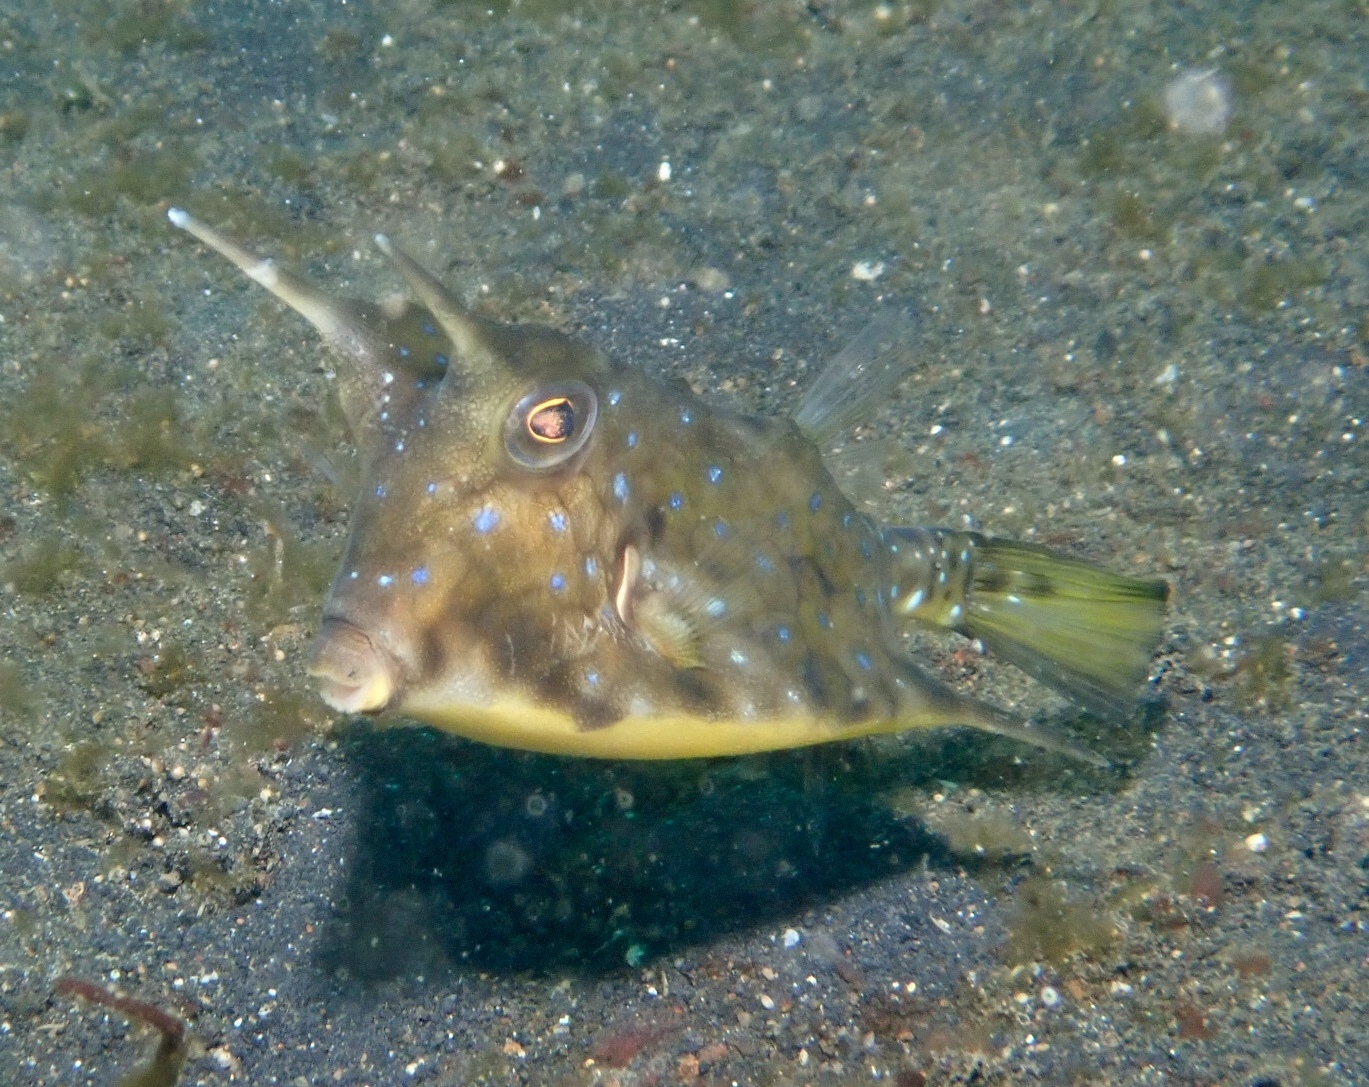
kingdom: Animalia
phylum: Chordata
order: Tetraodontiformes
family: Ostraciidae
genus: Lactoria
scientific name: Lactoria cornuta
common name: Longhorn cowfish
